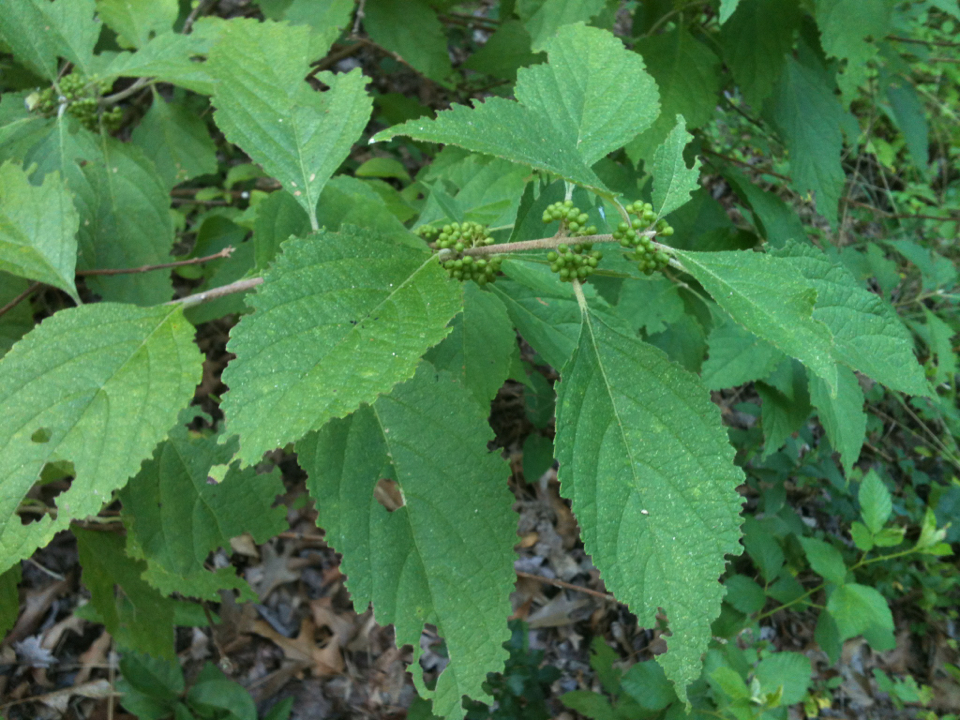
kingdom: Plantae
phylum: Tracheophyta
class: Magnoliopsida
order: Lamiales
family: Lamiaceae
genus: Callicarpa
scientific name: Callicarpa americana
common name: American beautyberry
